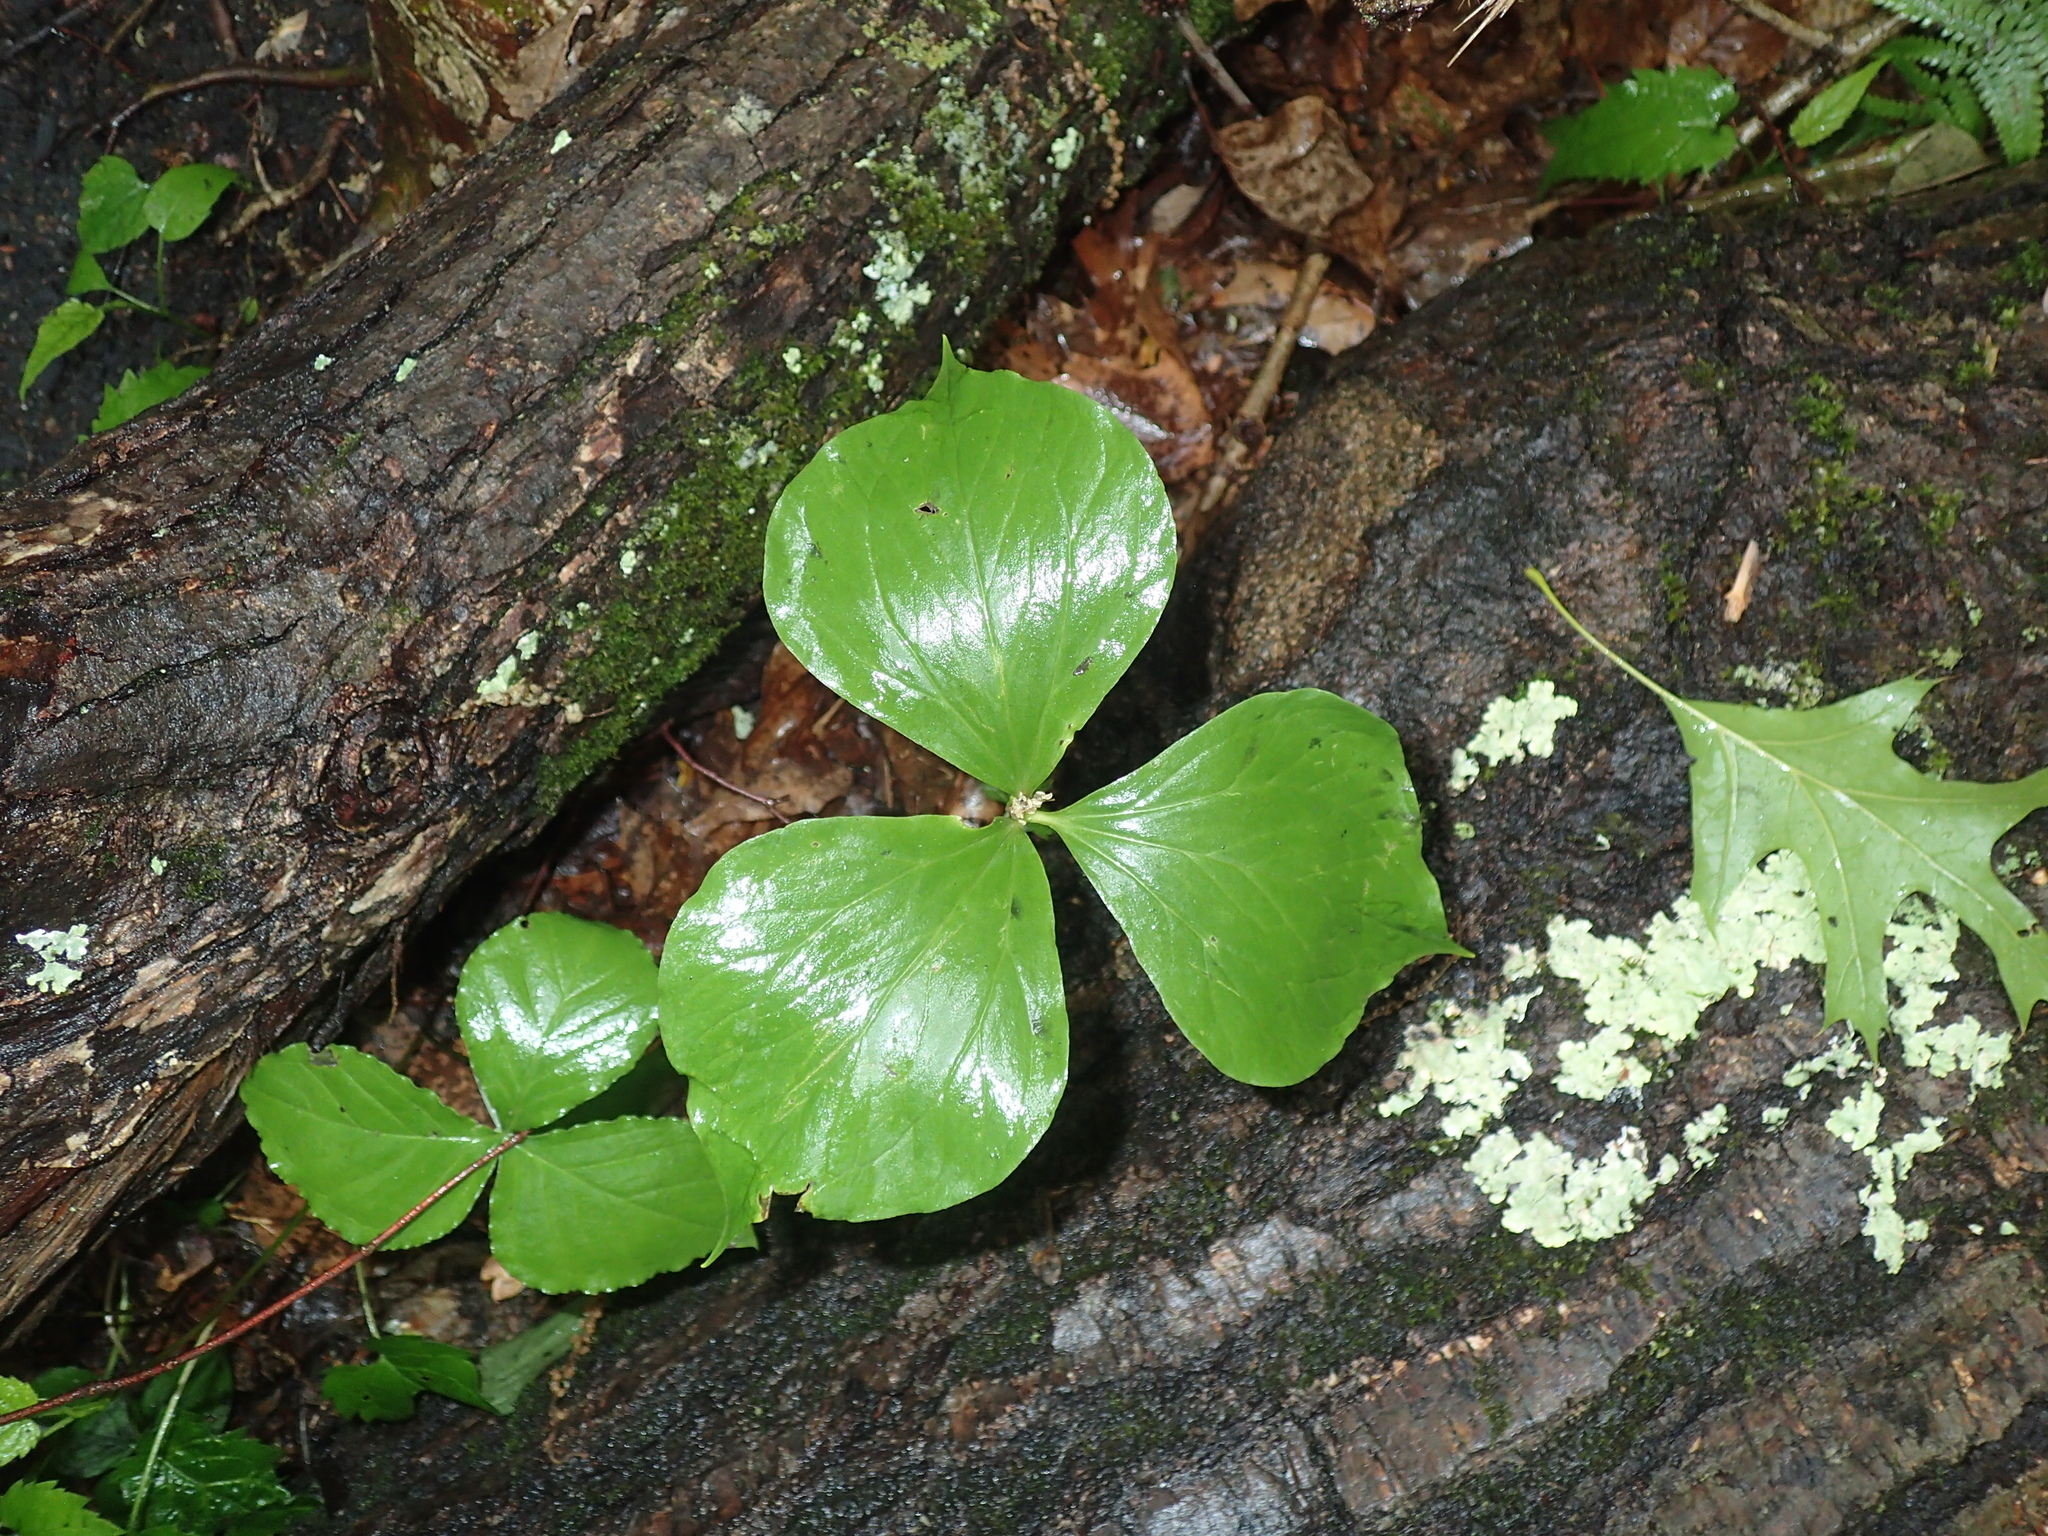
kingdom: Plantae
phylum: Tracheophyta
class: Liliopsida
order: Liliales
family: Melanthiaceae
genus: Trillium
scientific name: Trillium cernuum
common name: Nodding trillium
